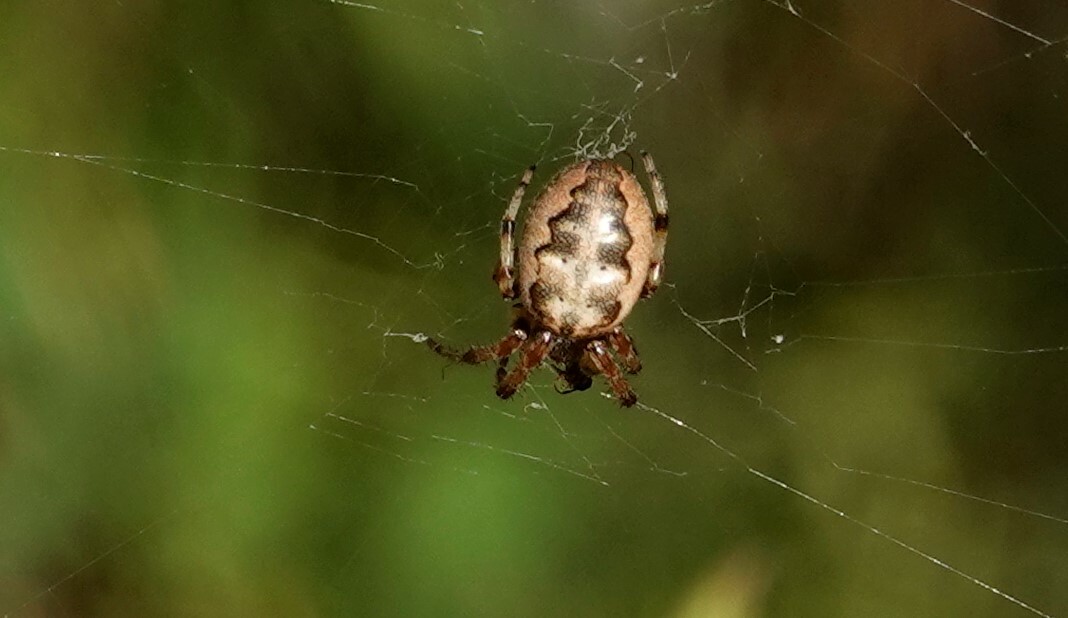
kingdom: Animalia
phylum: Arthropoda
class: Arachnida
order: Araneae
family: Araneidae
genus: Larinioides
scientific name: Larinioides cornutus
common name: Furrow orbweaver
